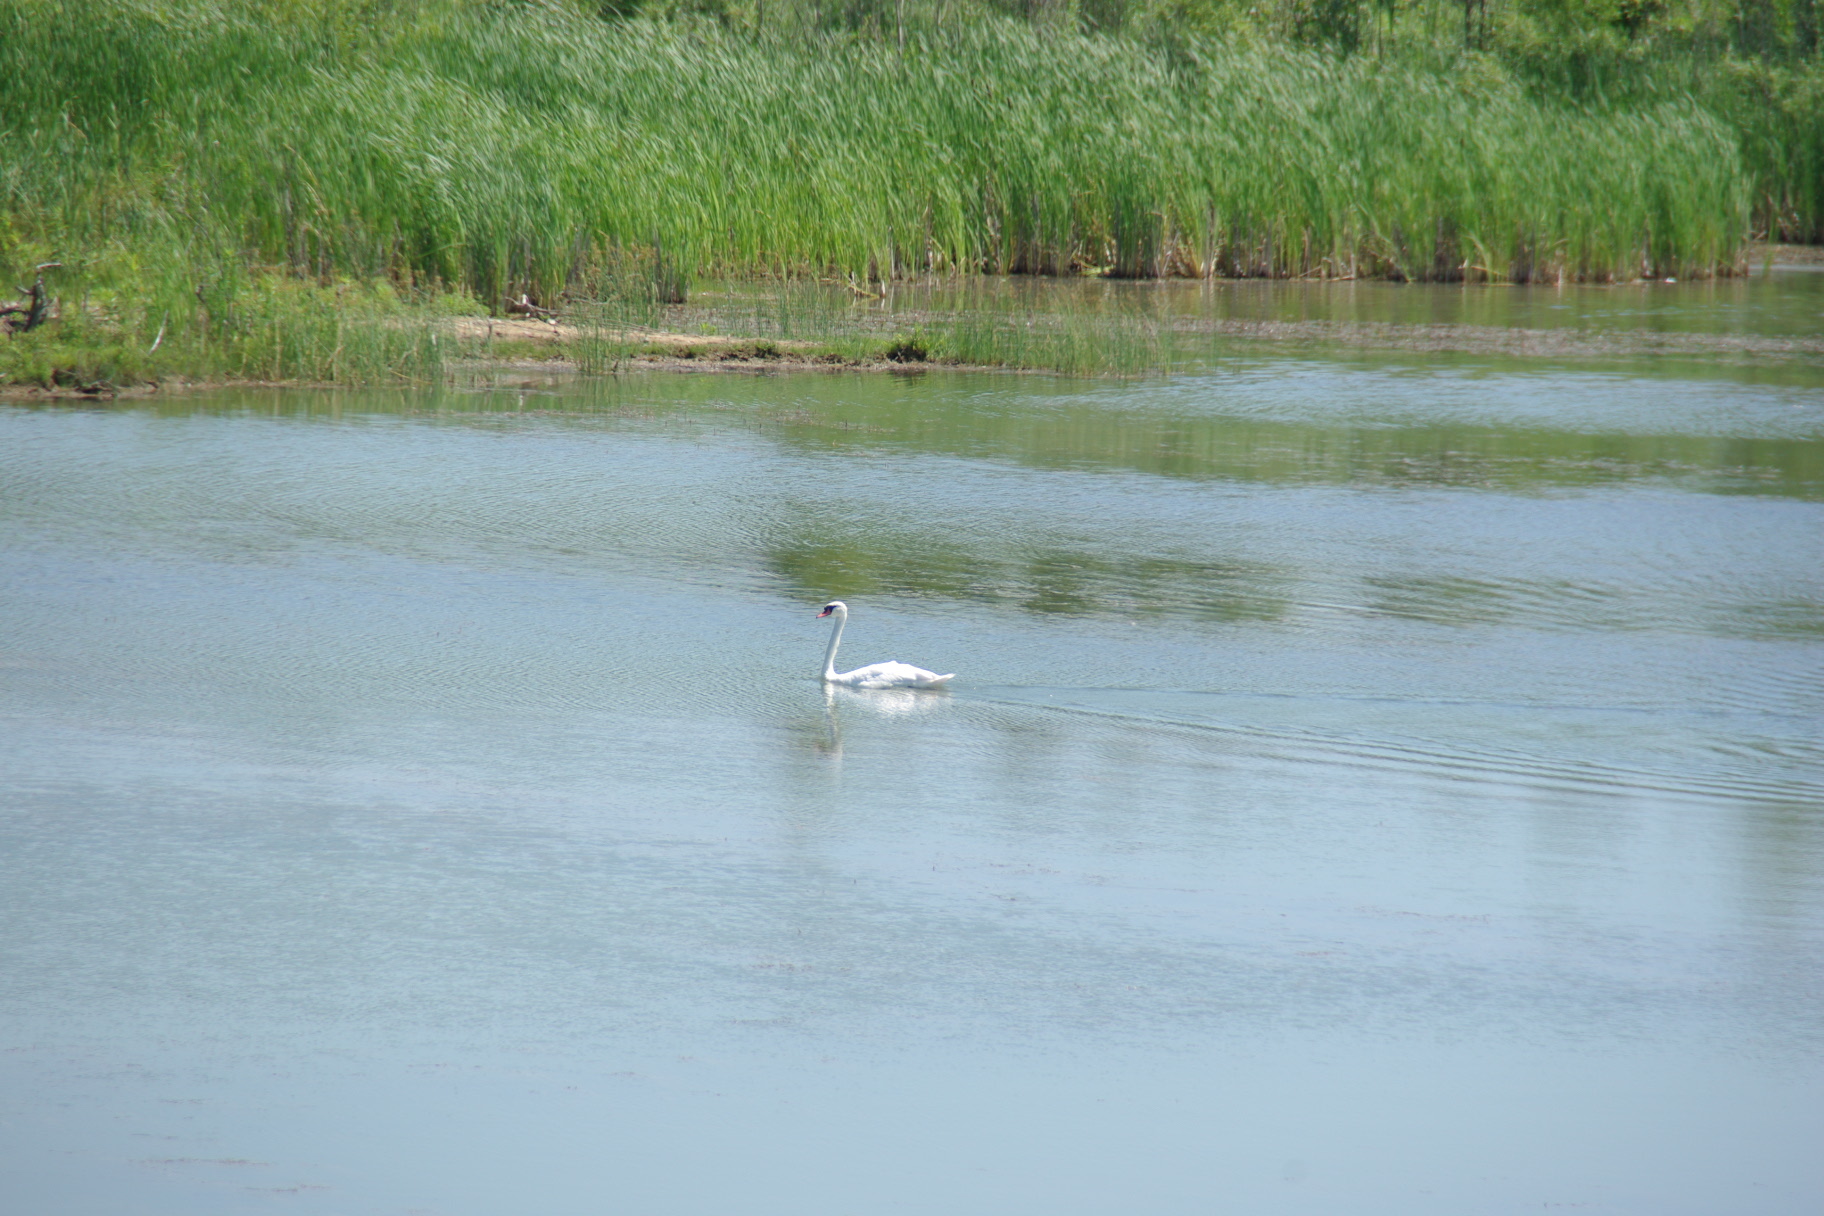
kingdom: Animalia
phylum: Chordata
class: Aves
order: Anseriformes
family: Anatidae
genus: Cygnus
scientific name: Cygnus olor
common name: Mute swan
